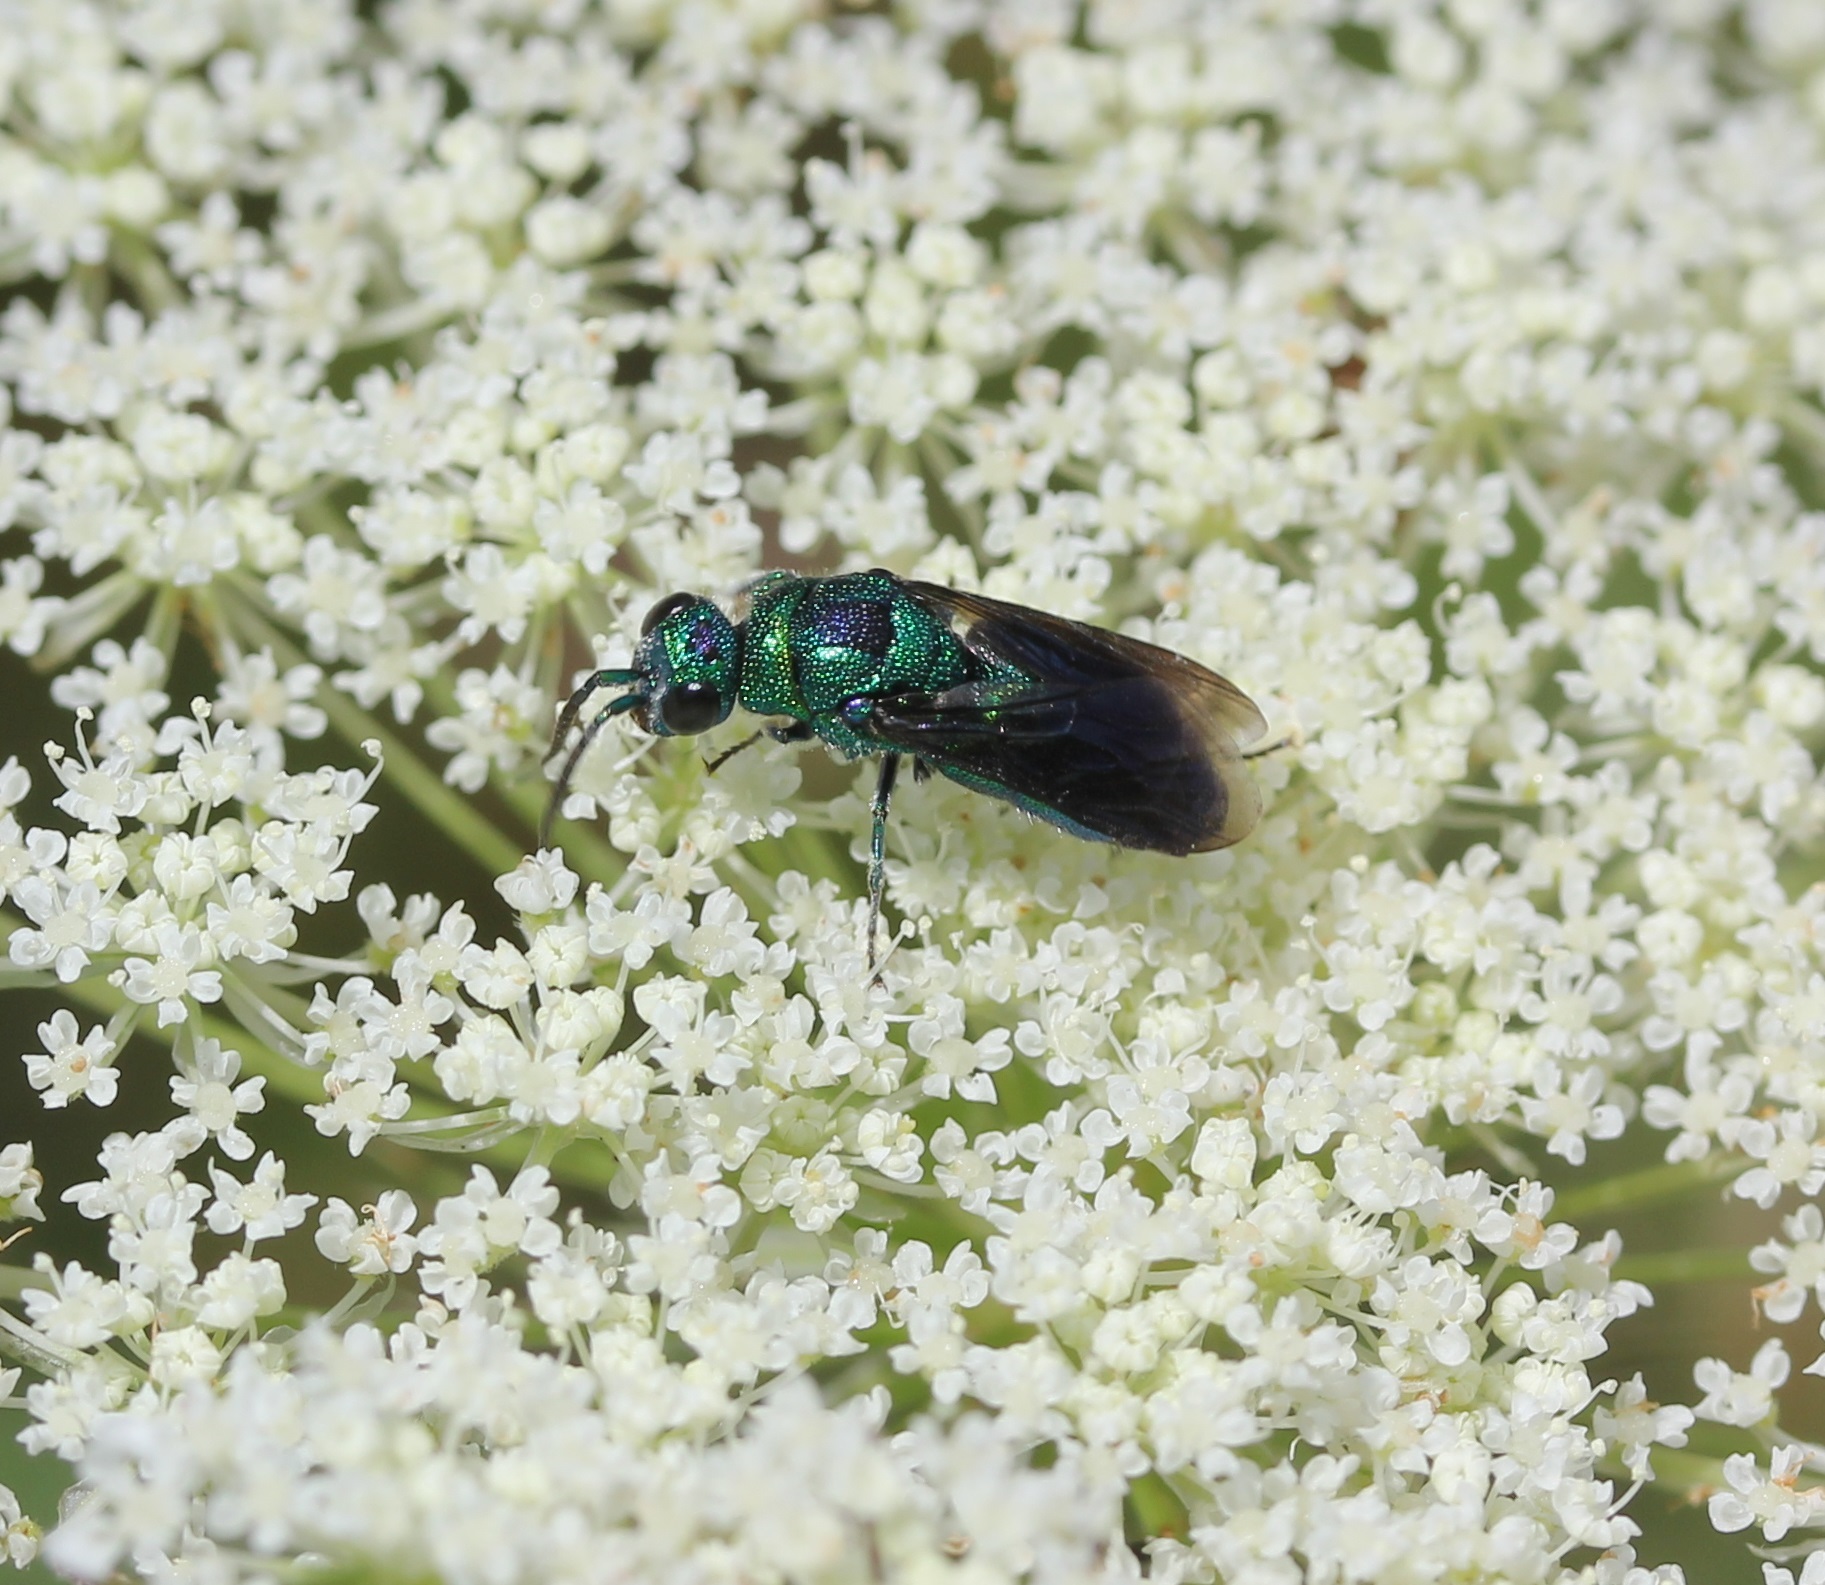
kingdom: Animalia
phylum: Arthropoda
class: Insecta
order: Hymenoptera
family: Chrysididae
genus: Chrysis
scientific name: Chrysis angolensis
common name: Cuckoo wasp
